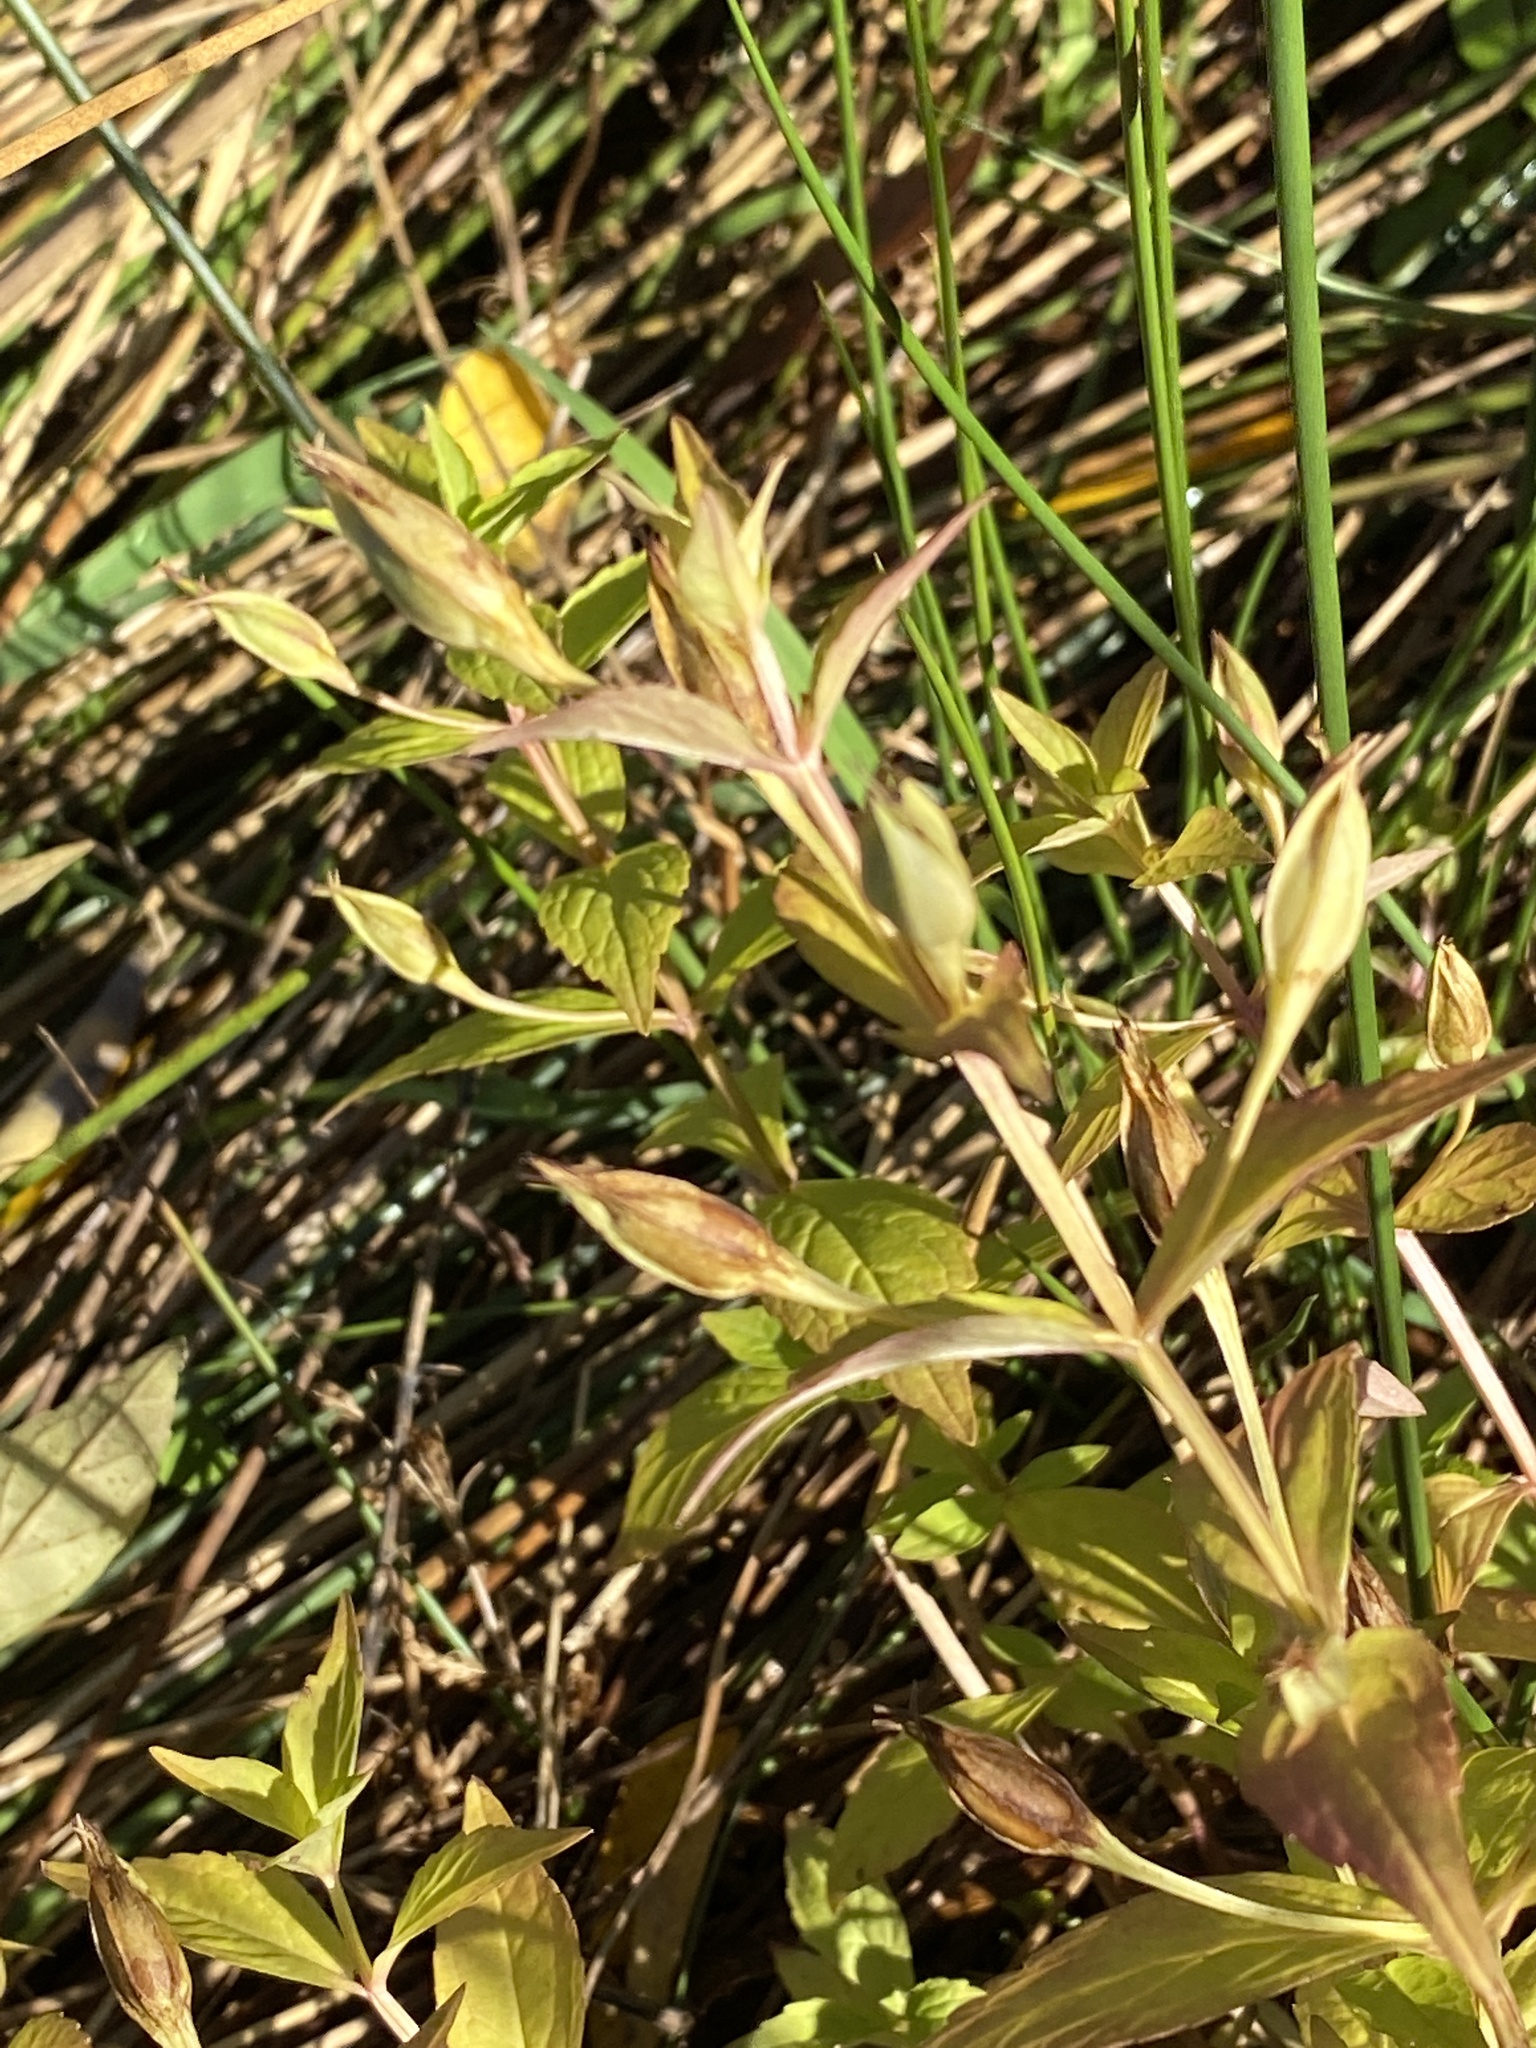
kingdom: Plantae
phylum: Tracheophyta
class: Magnoliopsida
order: Lamiales
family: Phrymaceae
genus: Mimulus
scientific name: Mimulus ringens
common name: Allegheny monkeyflower
